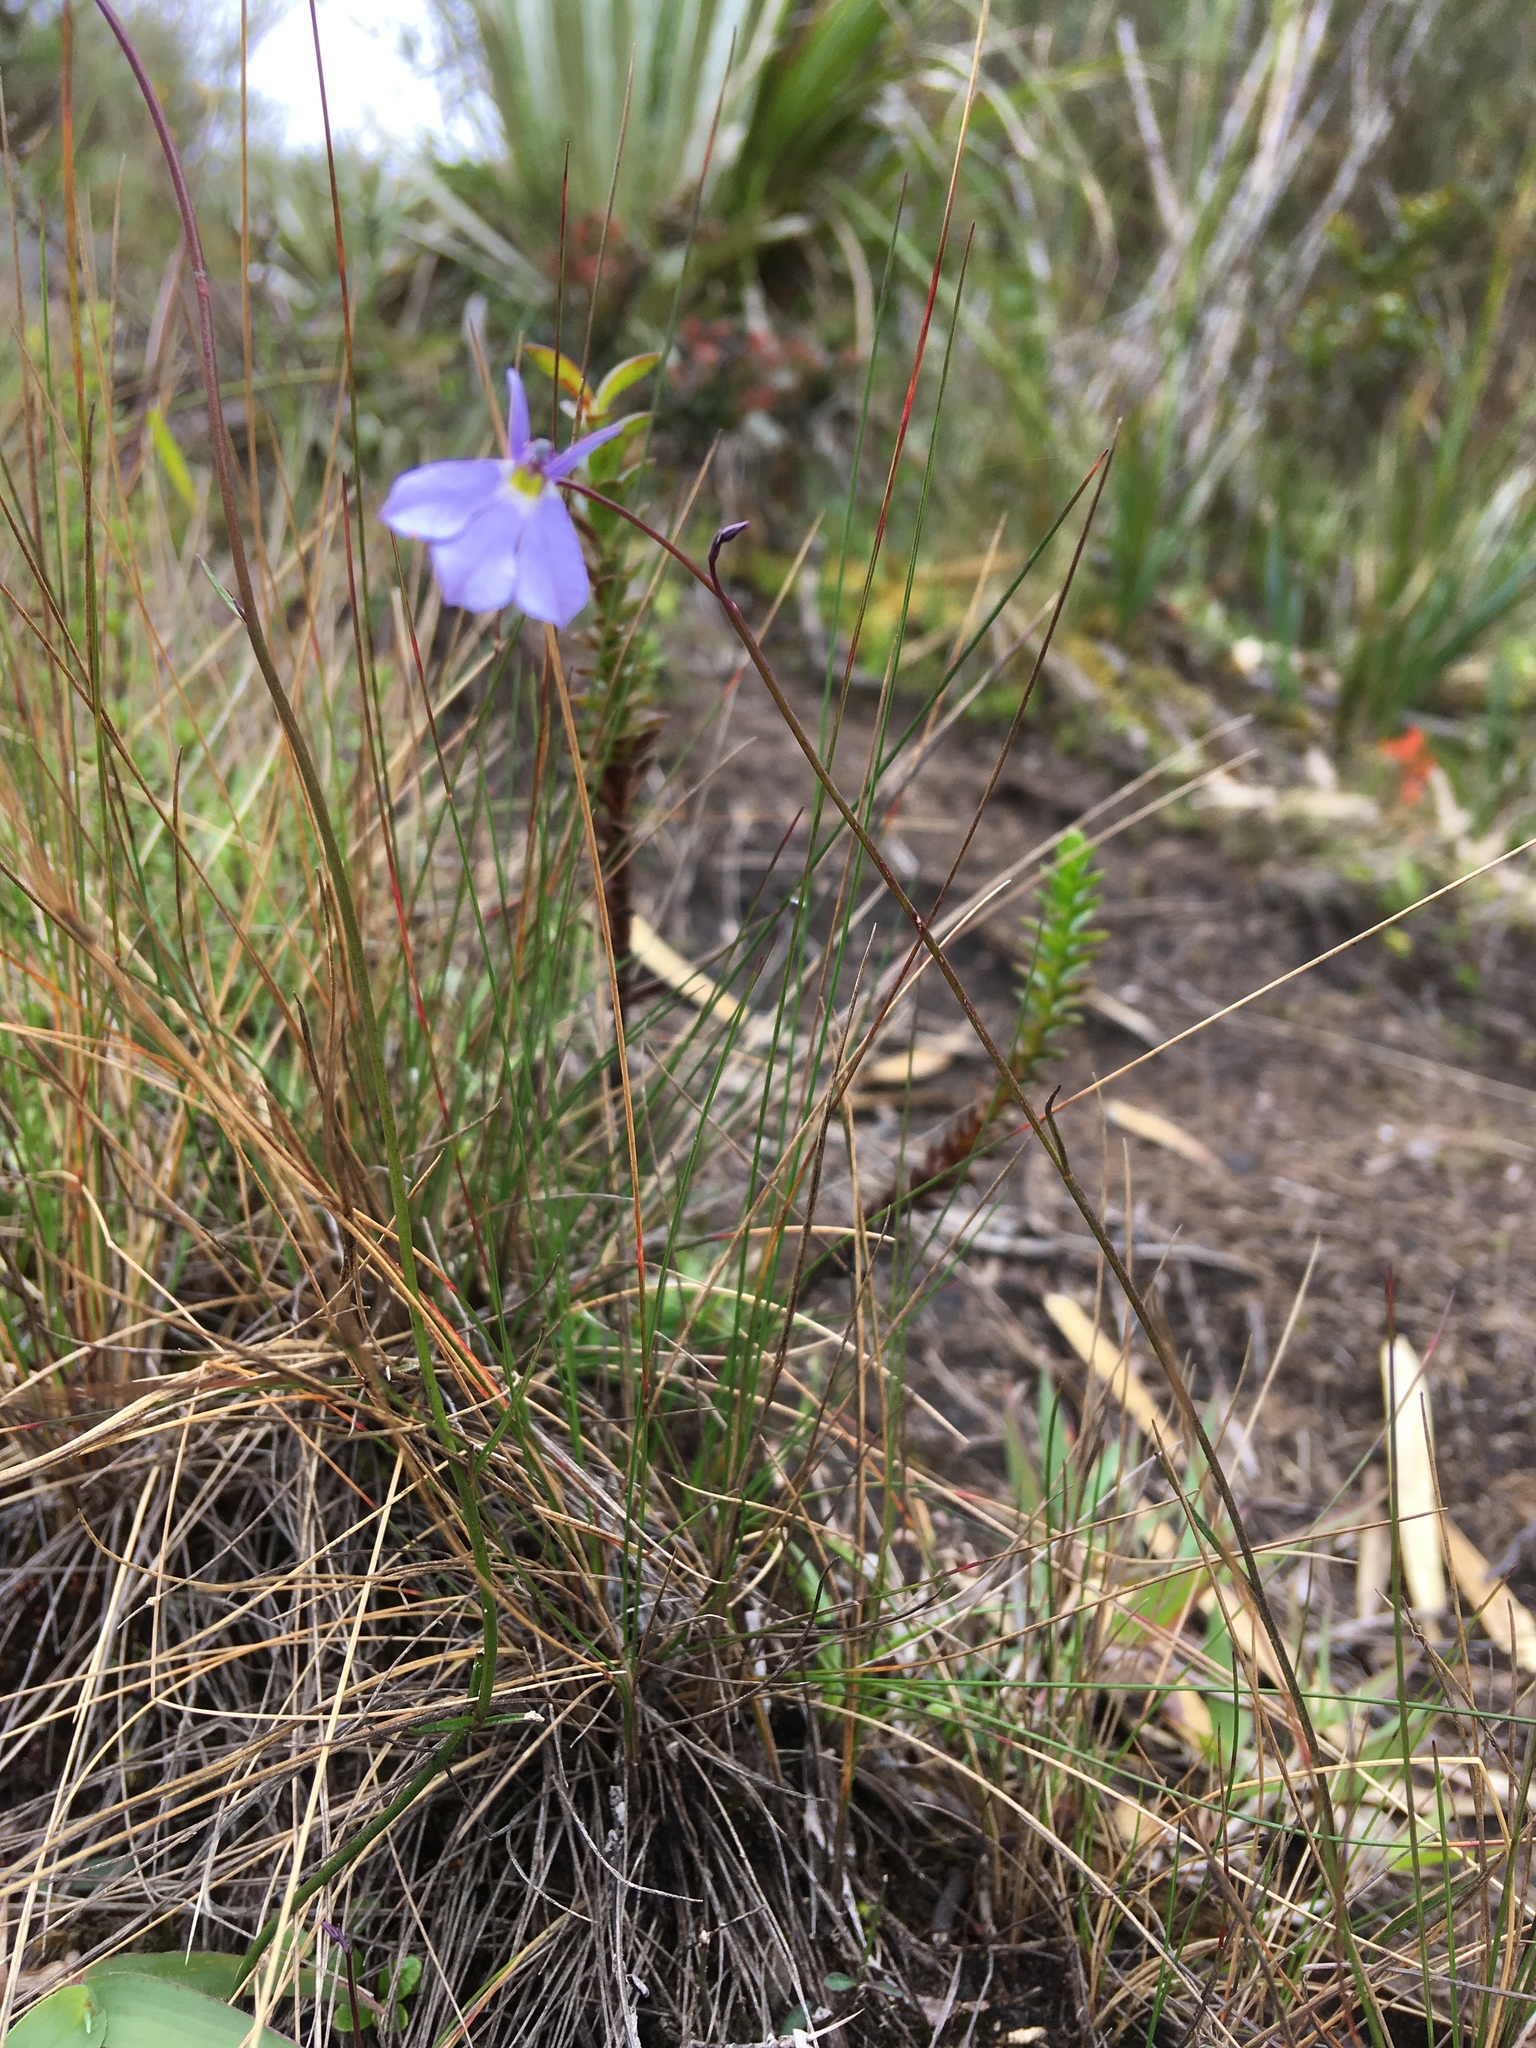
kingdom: Plantae
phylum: Tracheophyta
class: Magnoliopsida
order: Asterales
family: Campanulaceae
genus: Lobelia
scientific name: Lobelia tenera
